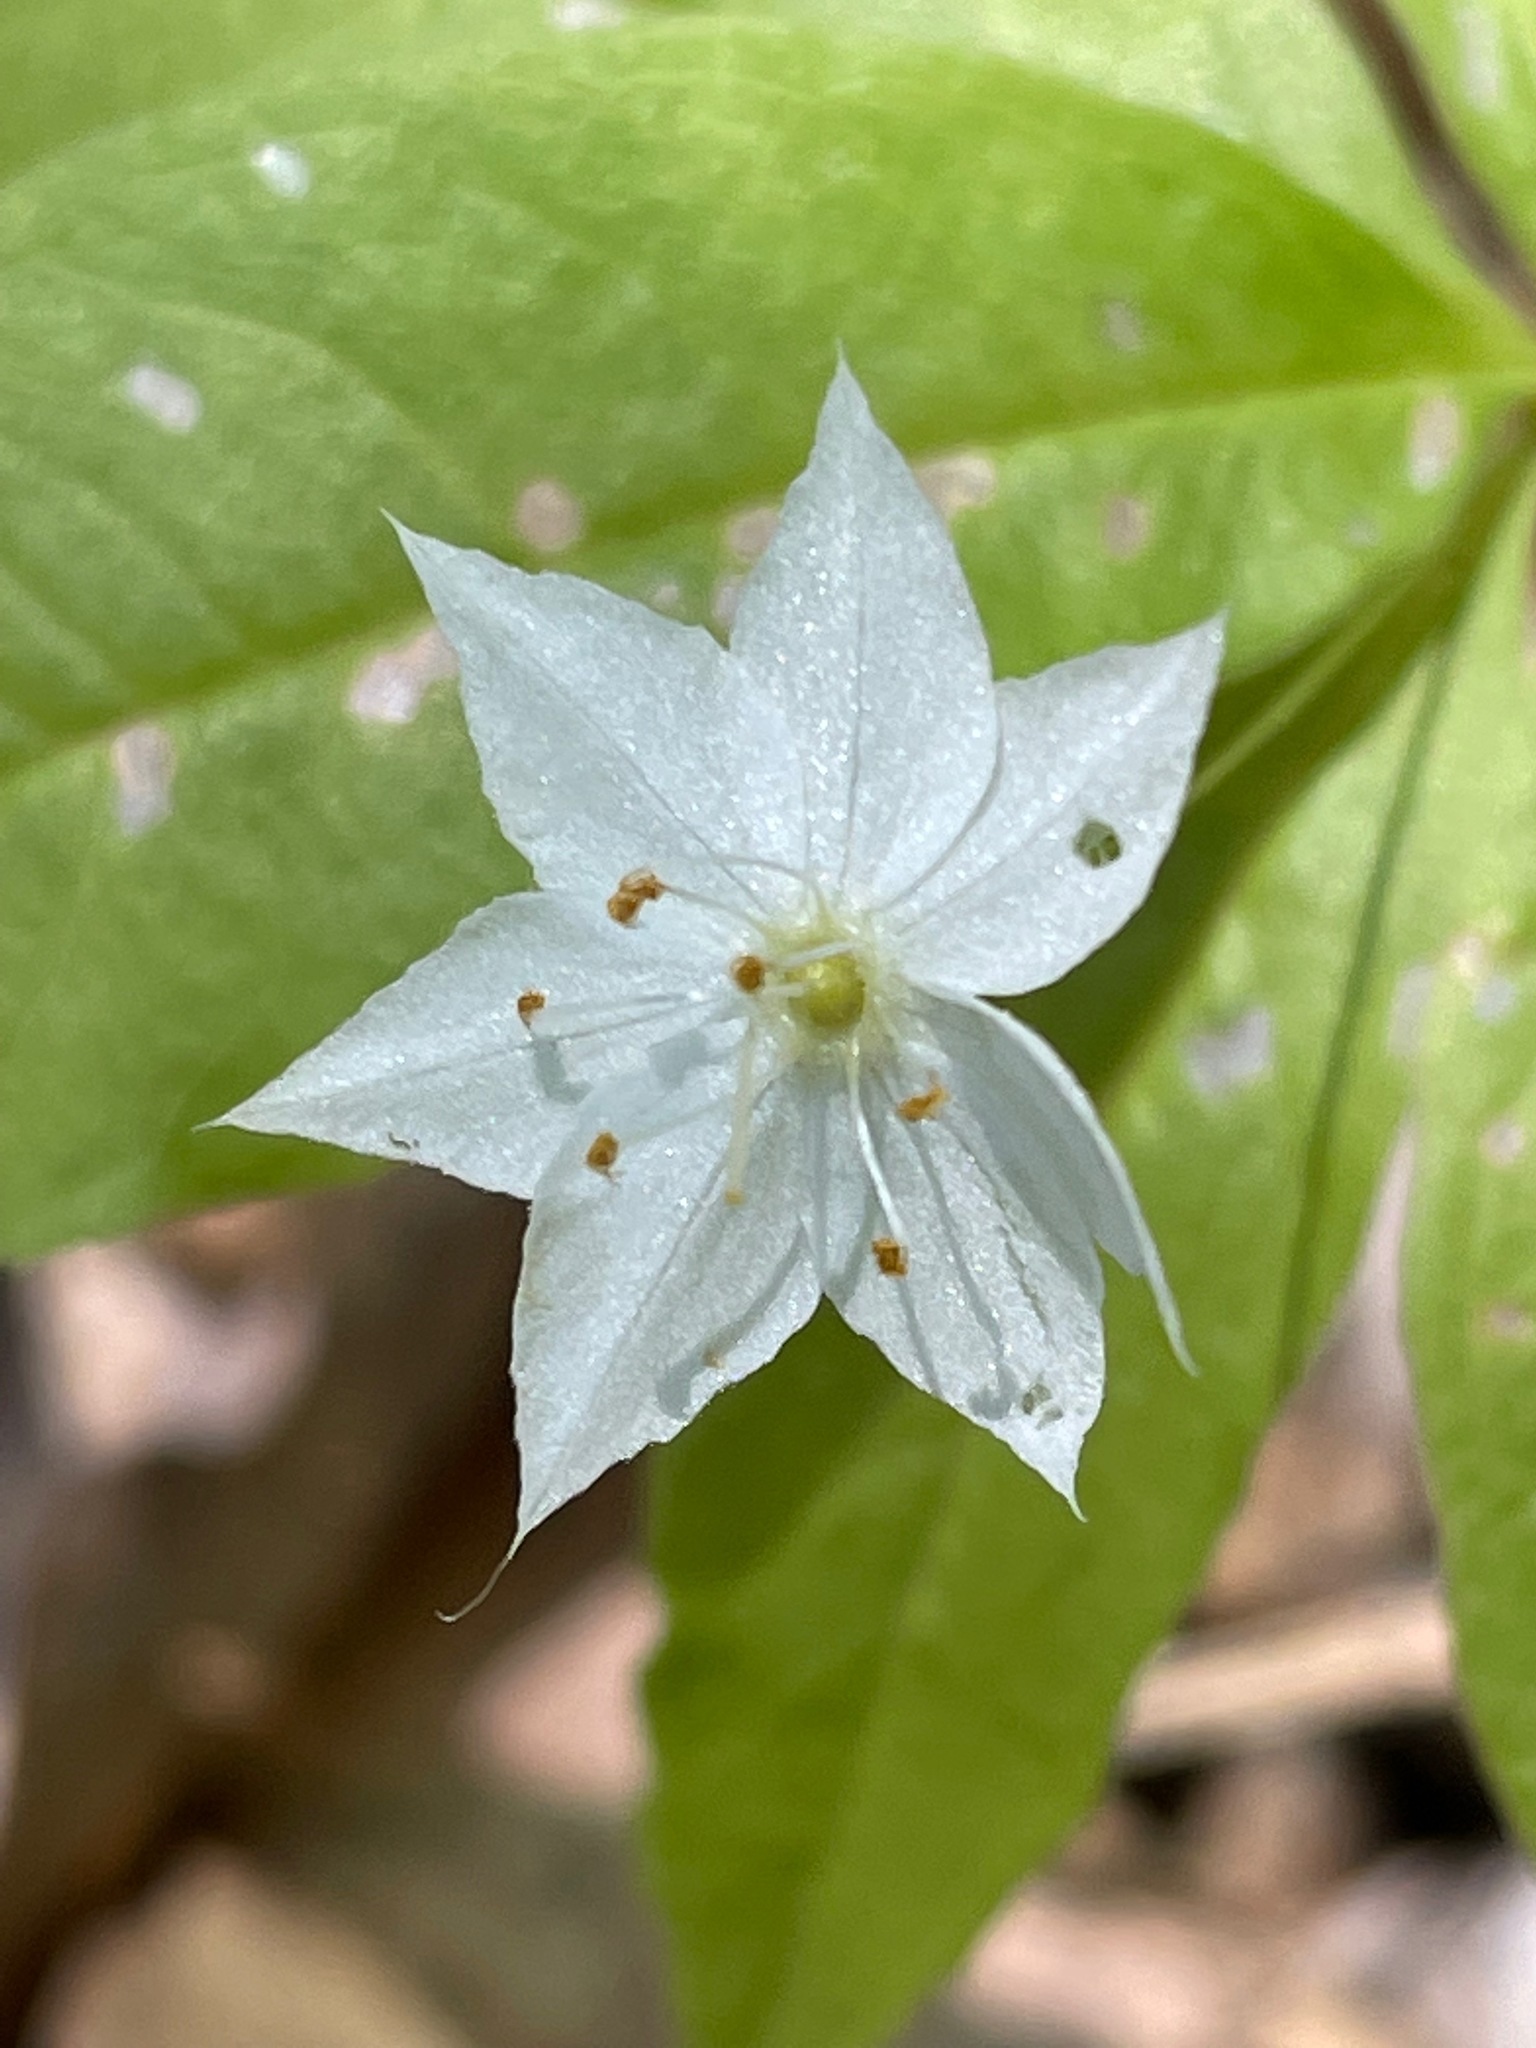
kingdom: Plantae
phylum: Tracheophyta
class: Magnoliopsida
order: Ericales
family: Primulaceae
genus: Lysimachia
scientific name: Lysimachia borealis
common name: American starflower
